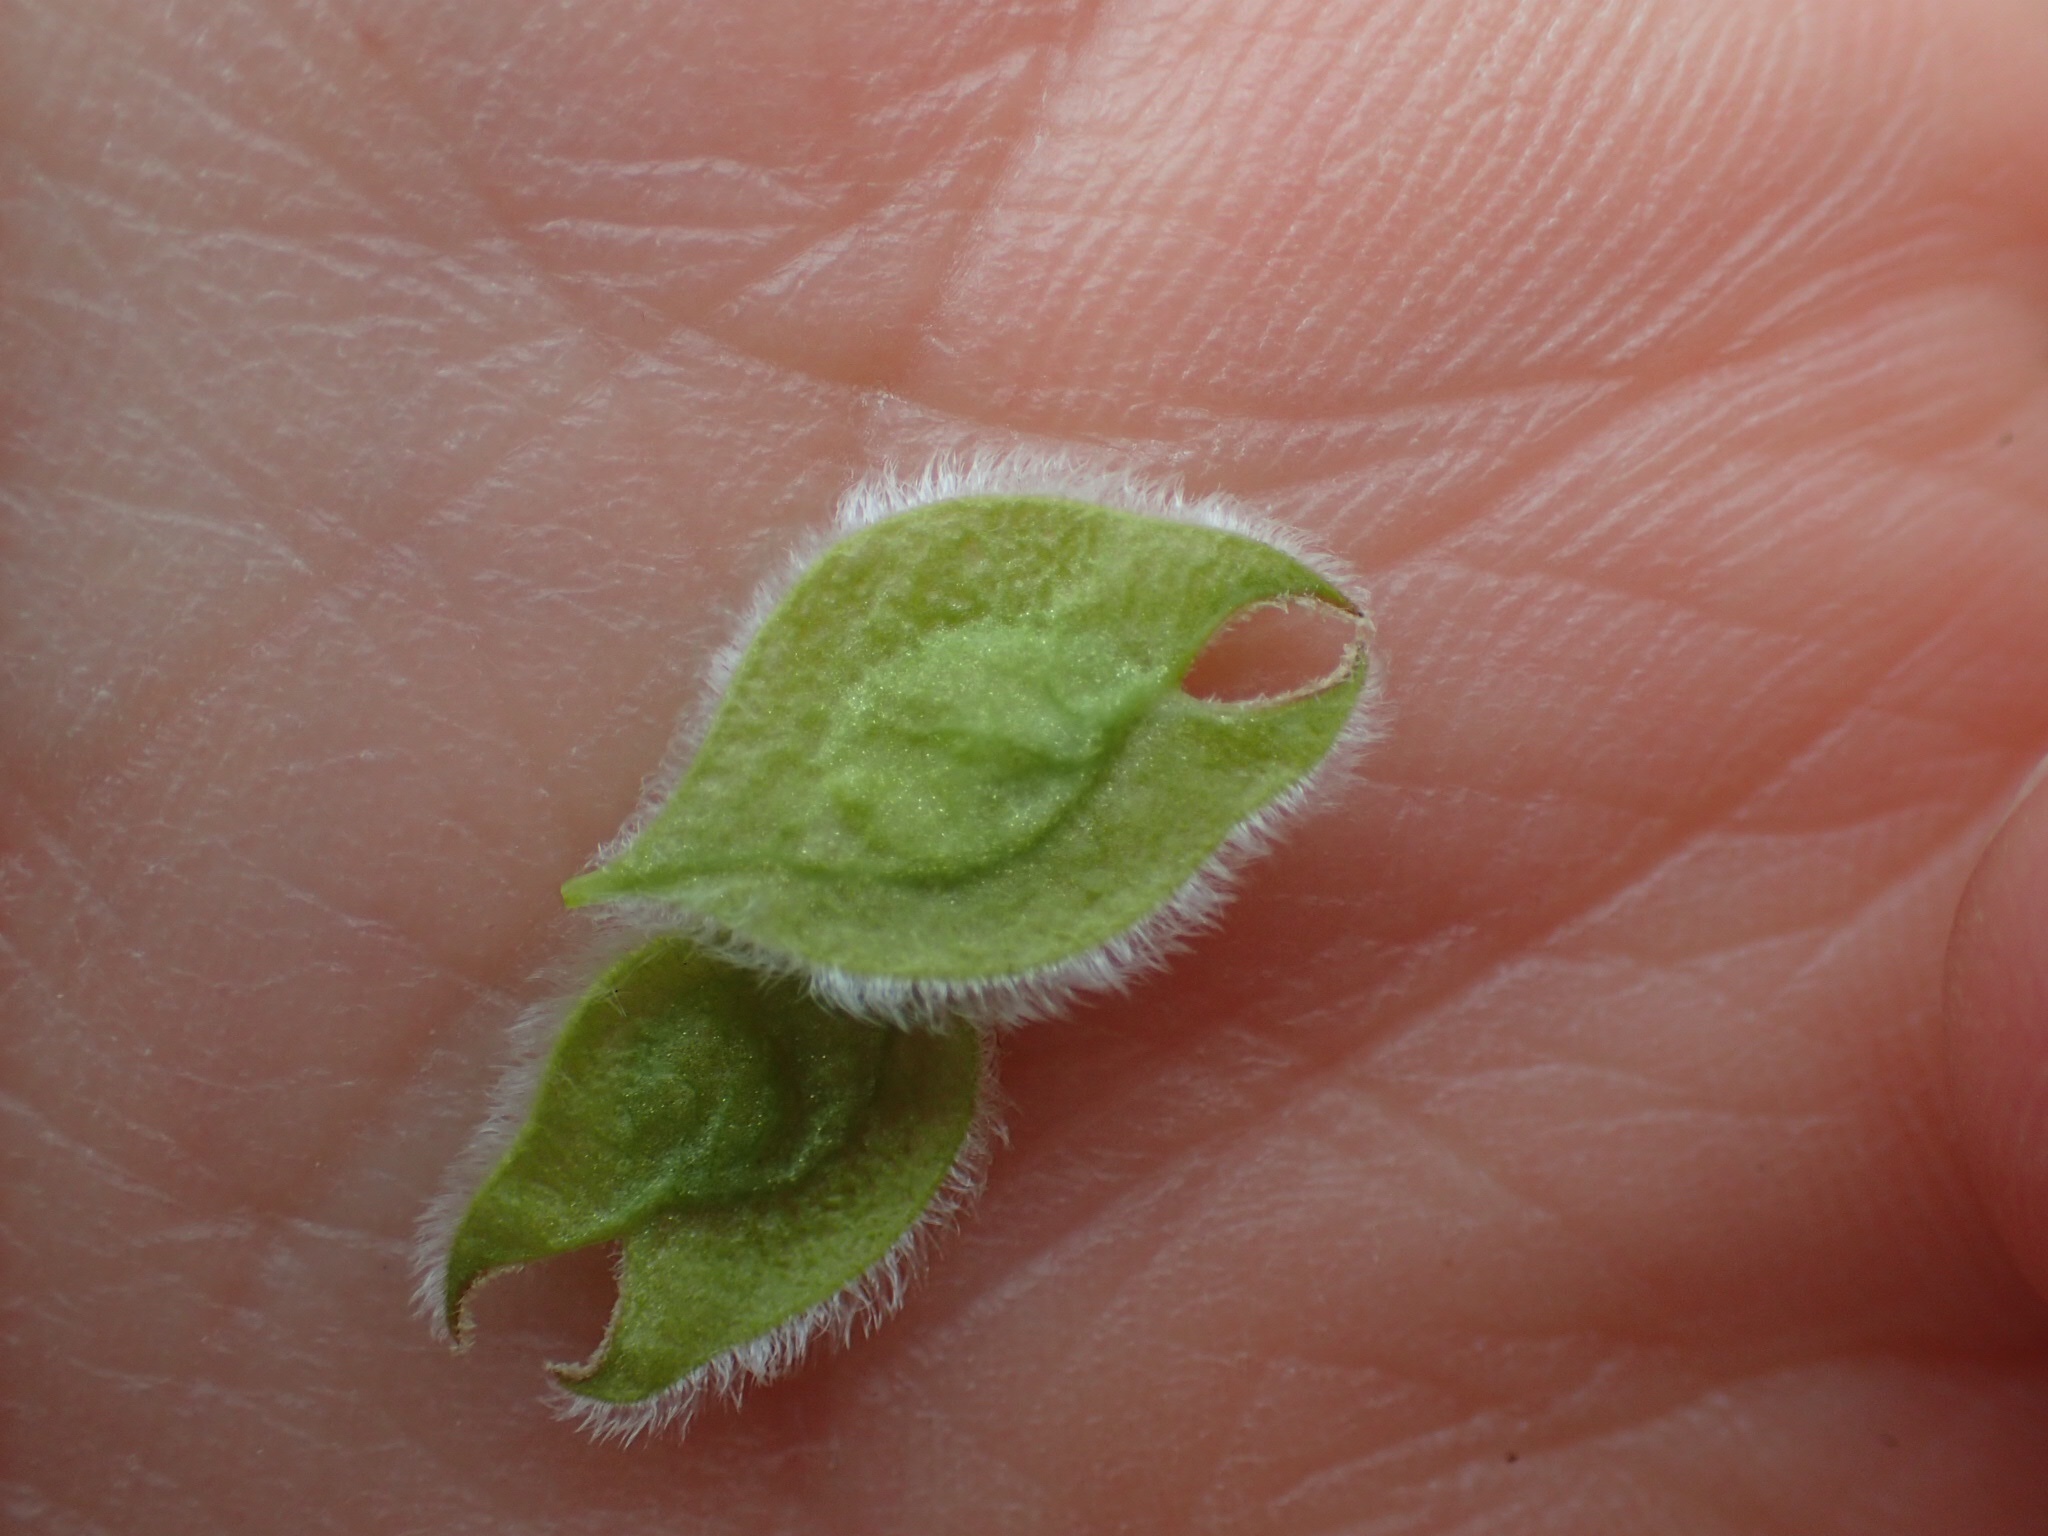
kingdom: Plantae
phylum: Tracheophyta
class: Magnoliopsida
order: Rosales
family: Ulmaceae
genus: Ulmus
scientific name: Ulmus americana
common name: American elm
